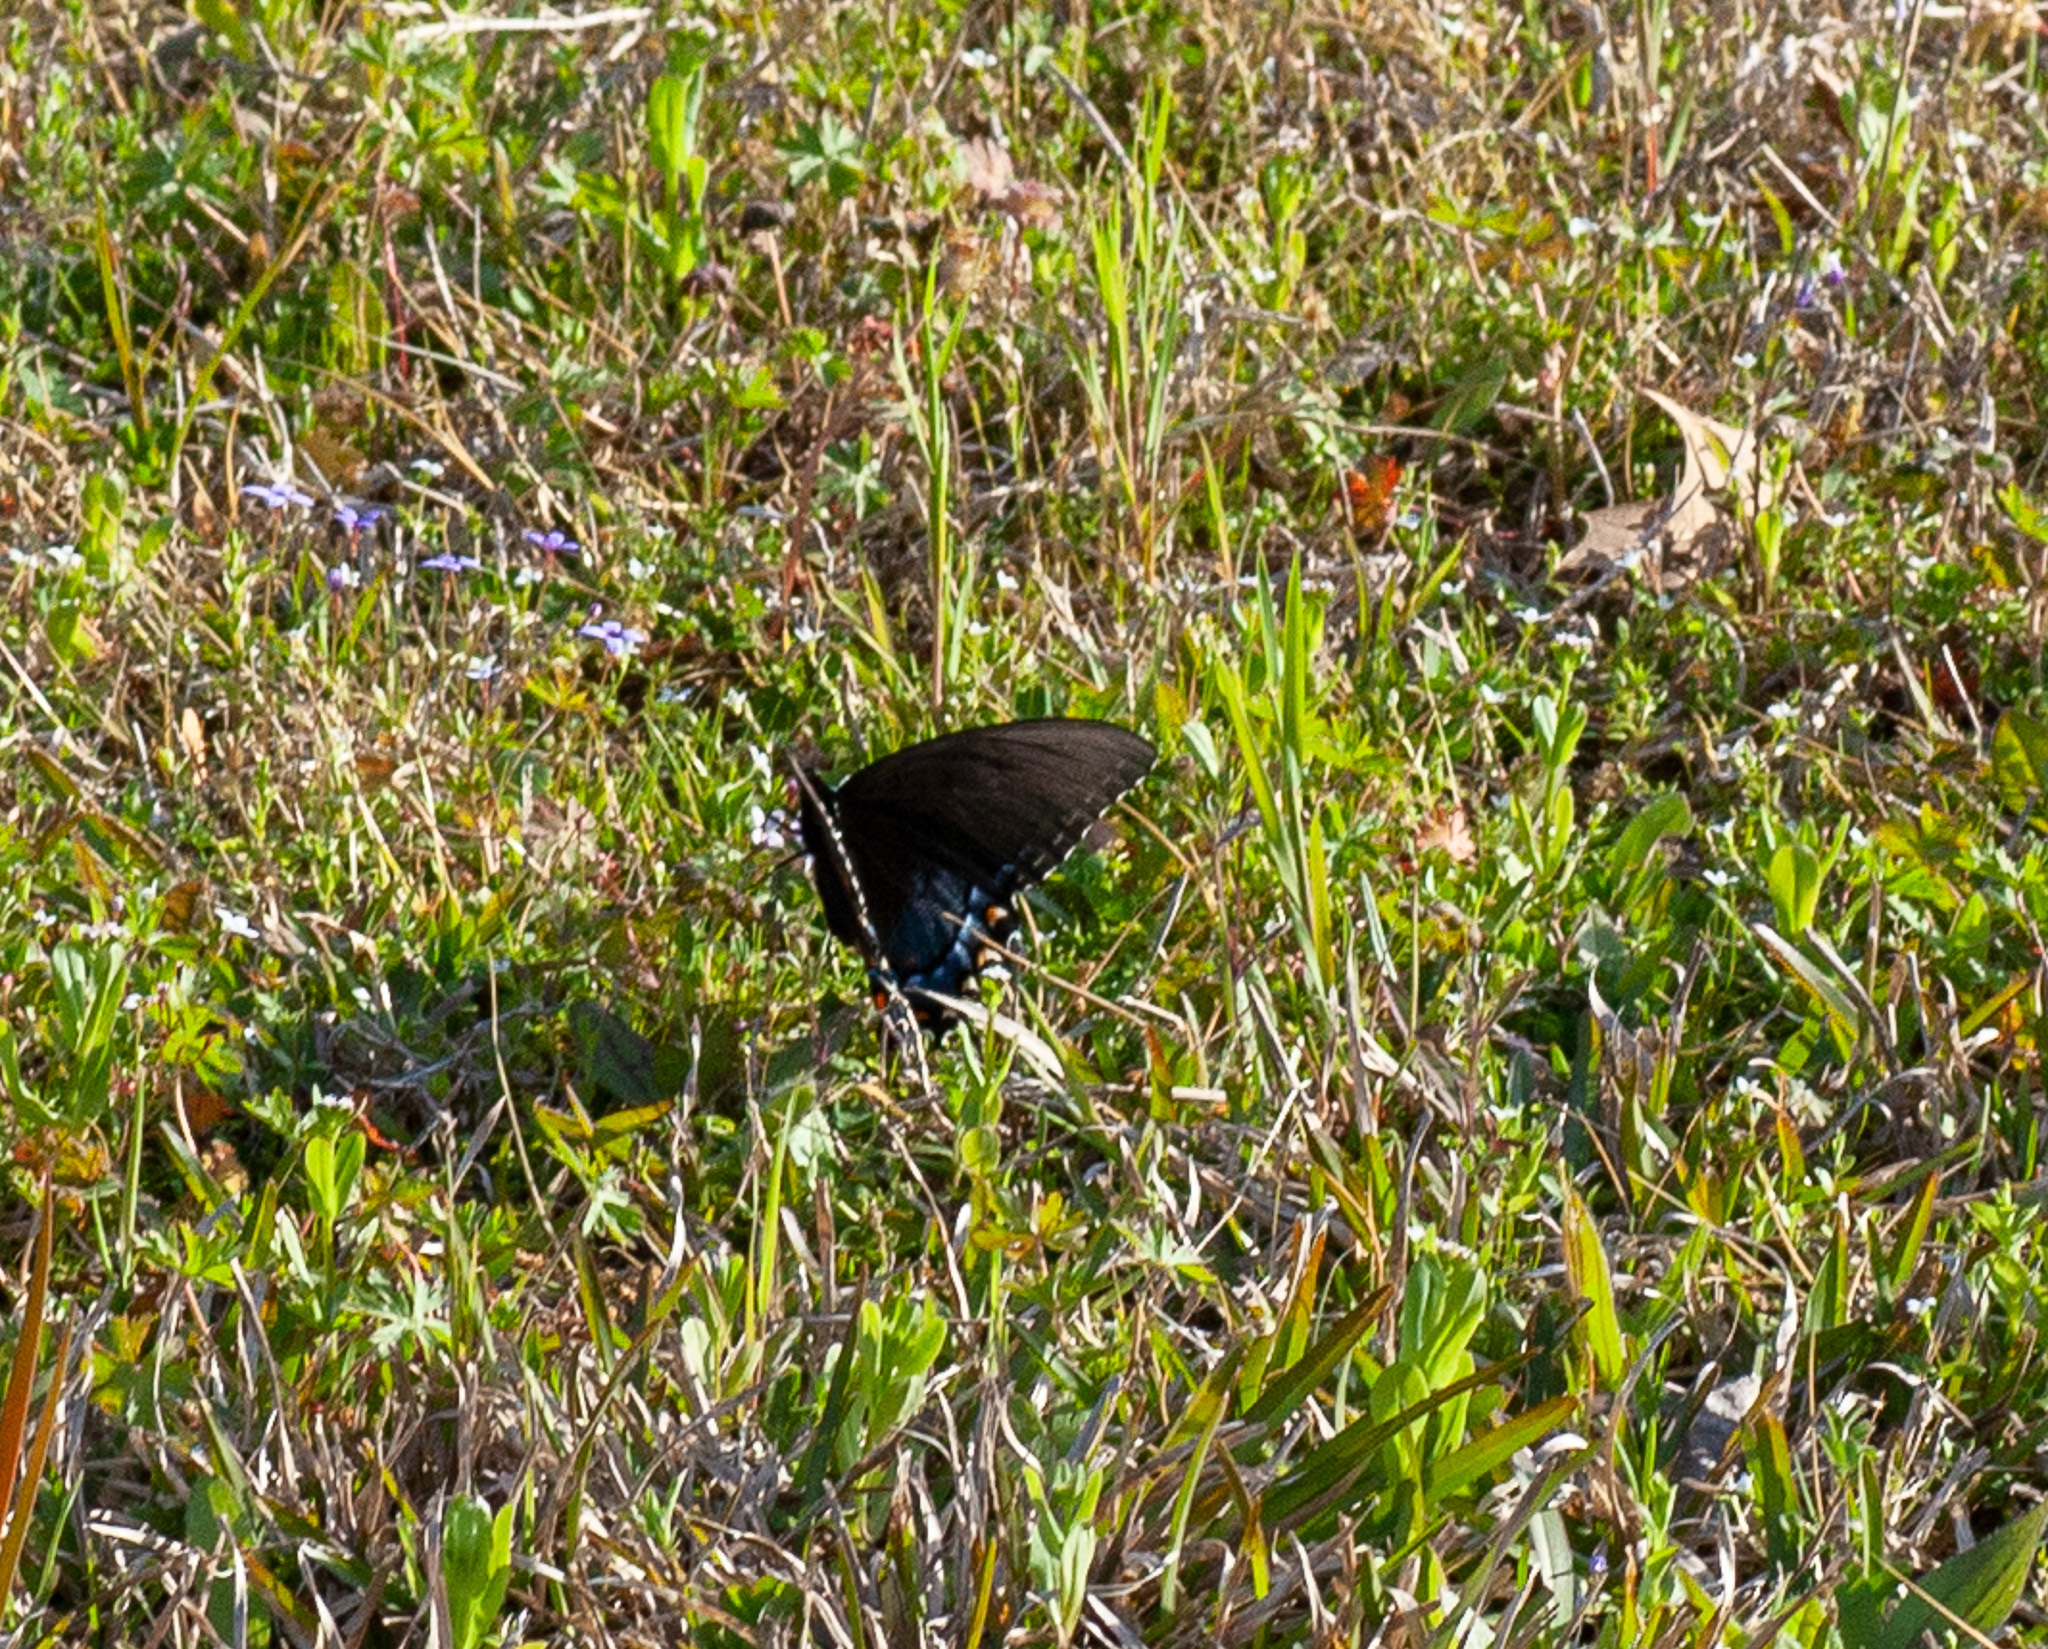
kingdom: Animalia
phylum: Arthropoda
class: Insecta
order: Lepidoptera
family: Papilionidae
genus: Papilio
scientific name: Papilio glaucus
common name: Tiger swallowtail
